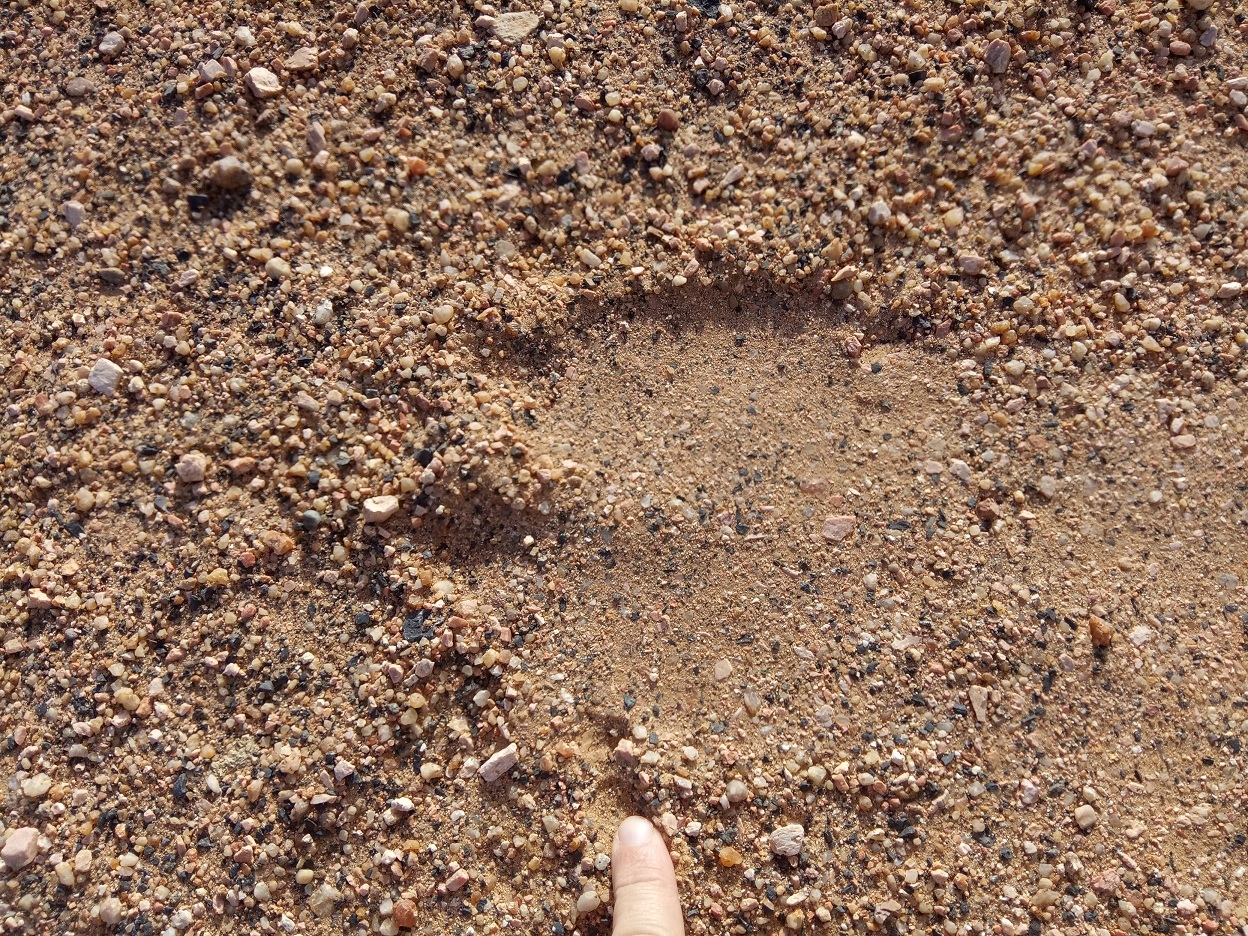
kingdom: Animalia
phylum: Chordata
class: Mammalia
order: Artiodactyla
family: Camelidae
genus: Camelus
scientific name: Camelus dromedarius
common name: One-humped camel
